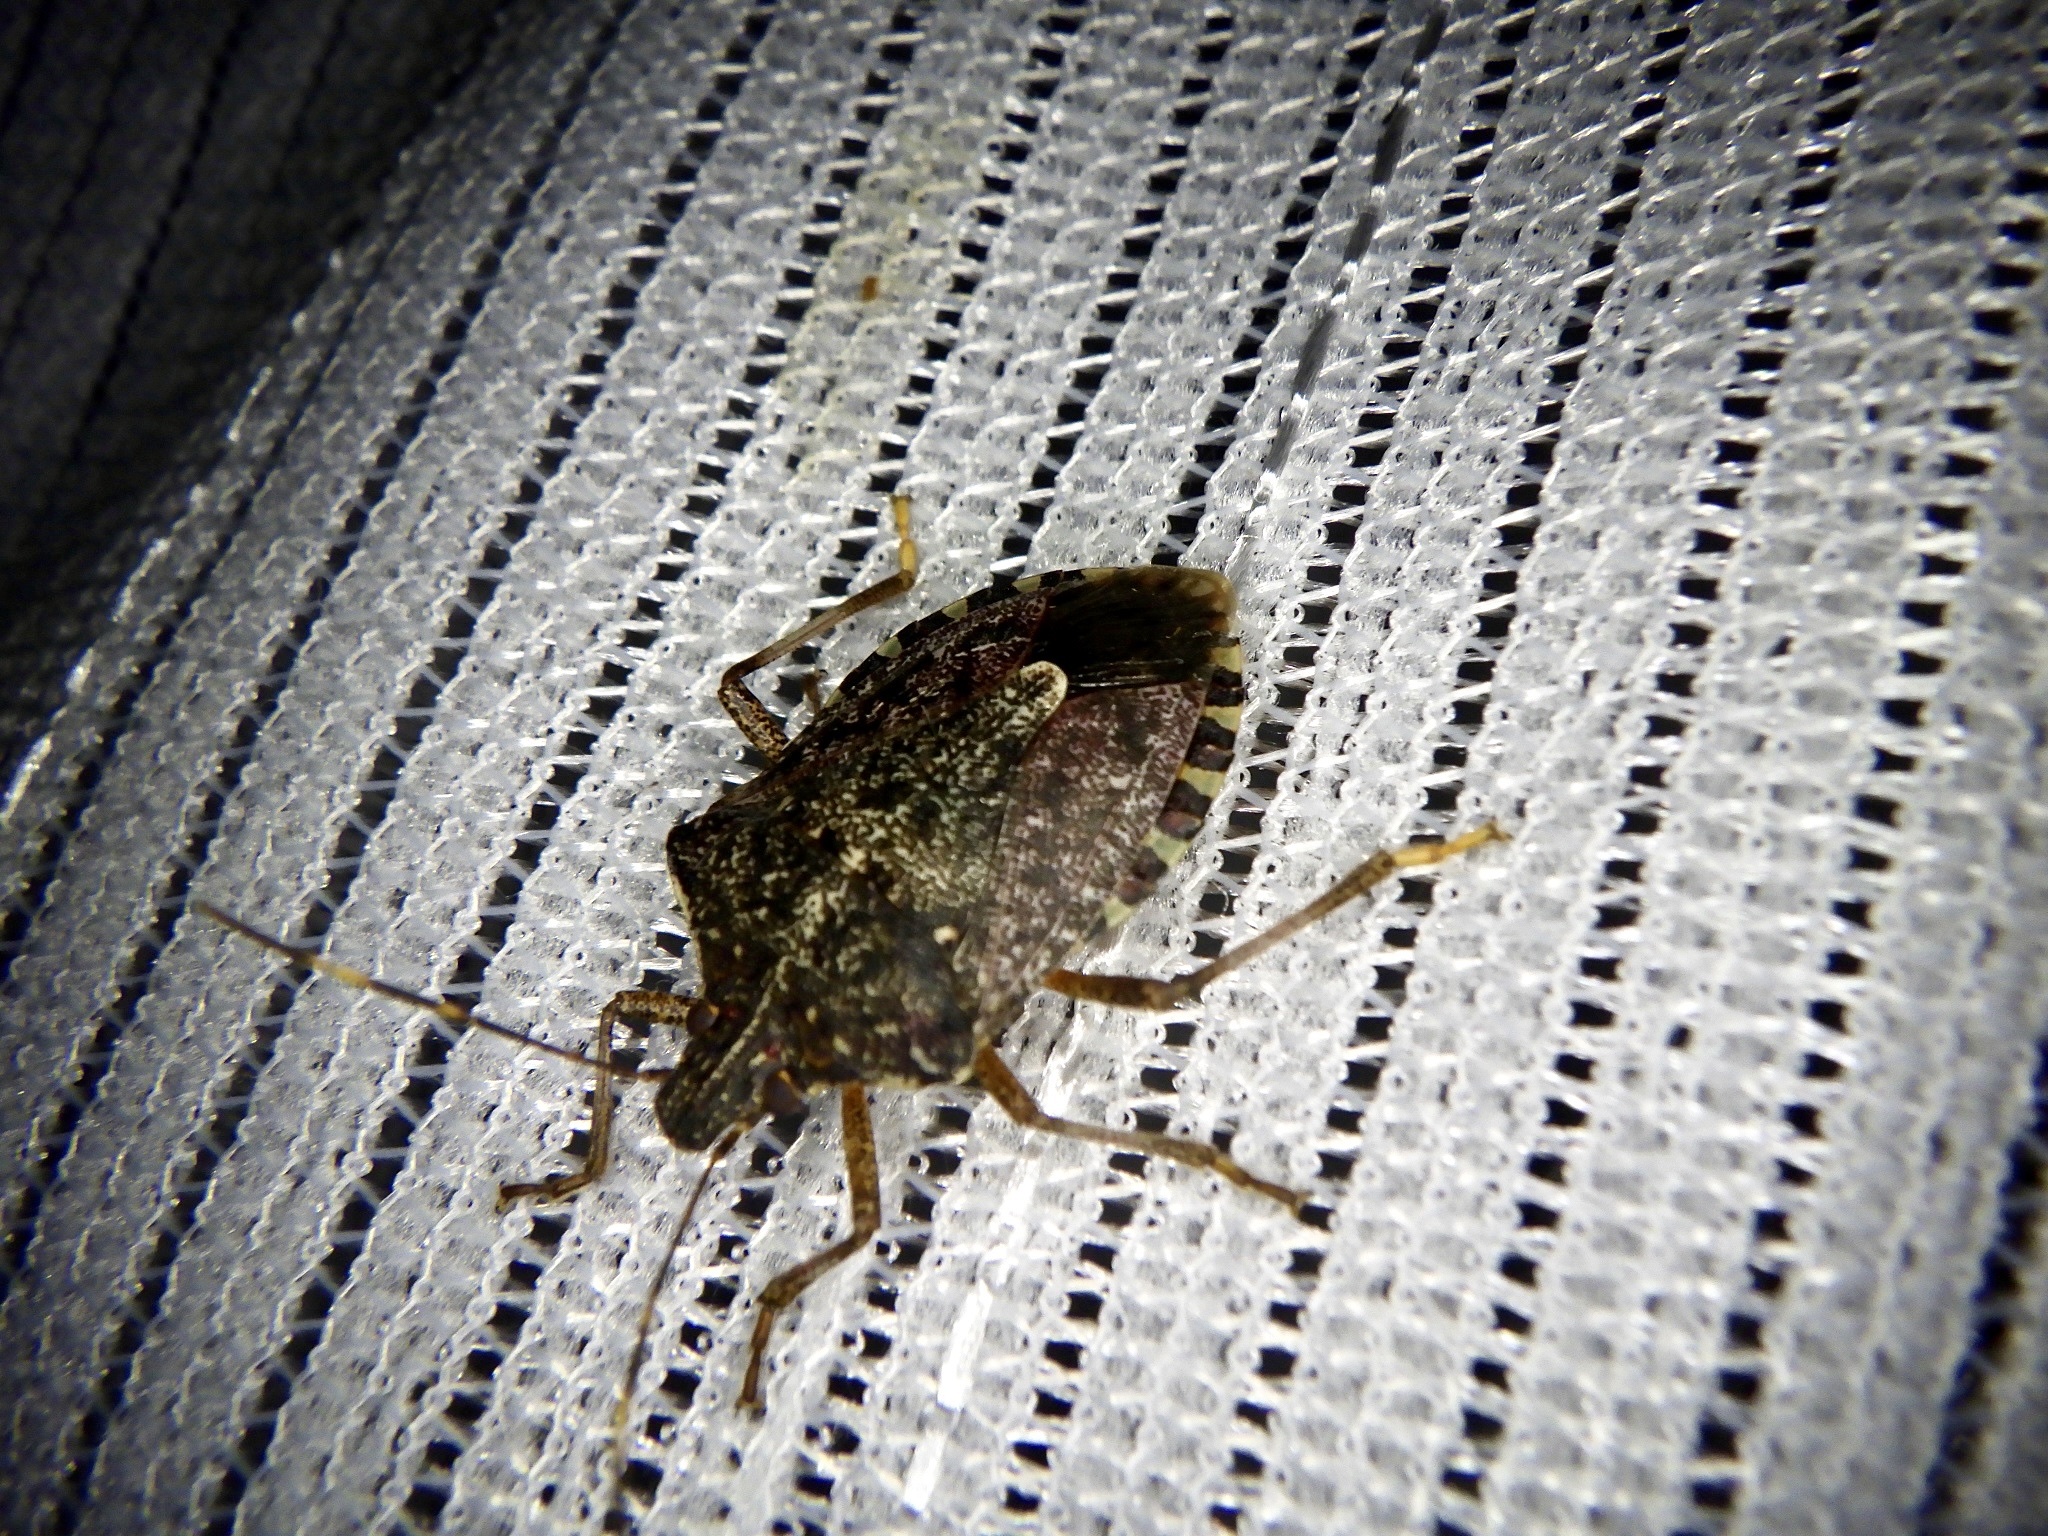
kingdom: Animalia
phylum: Arthropoda
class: Insecta
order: Hemiptera
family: Pentatomidae
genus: Halyomorpha
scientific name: Halyomorpha halys
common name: Brown marmorated stink bug
